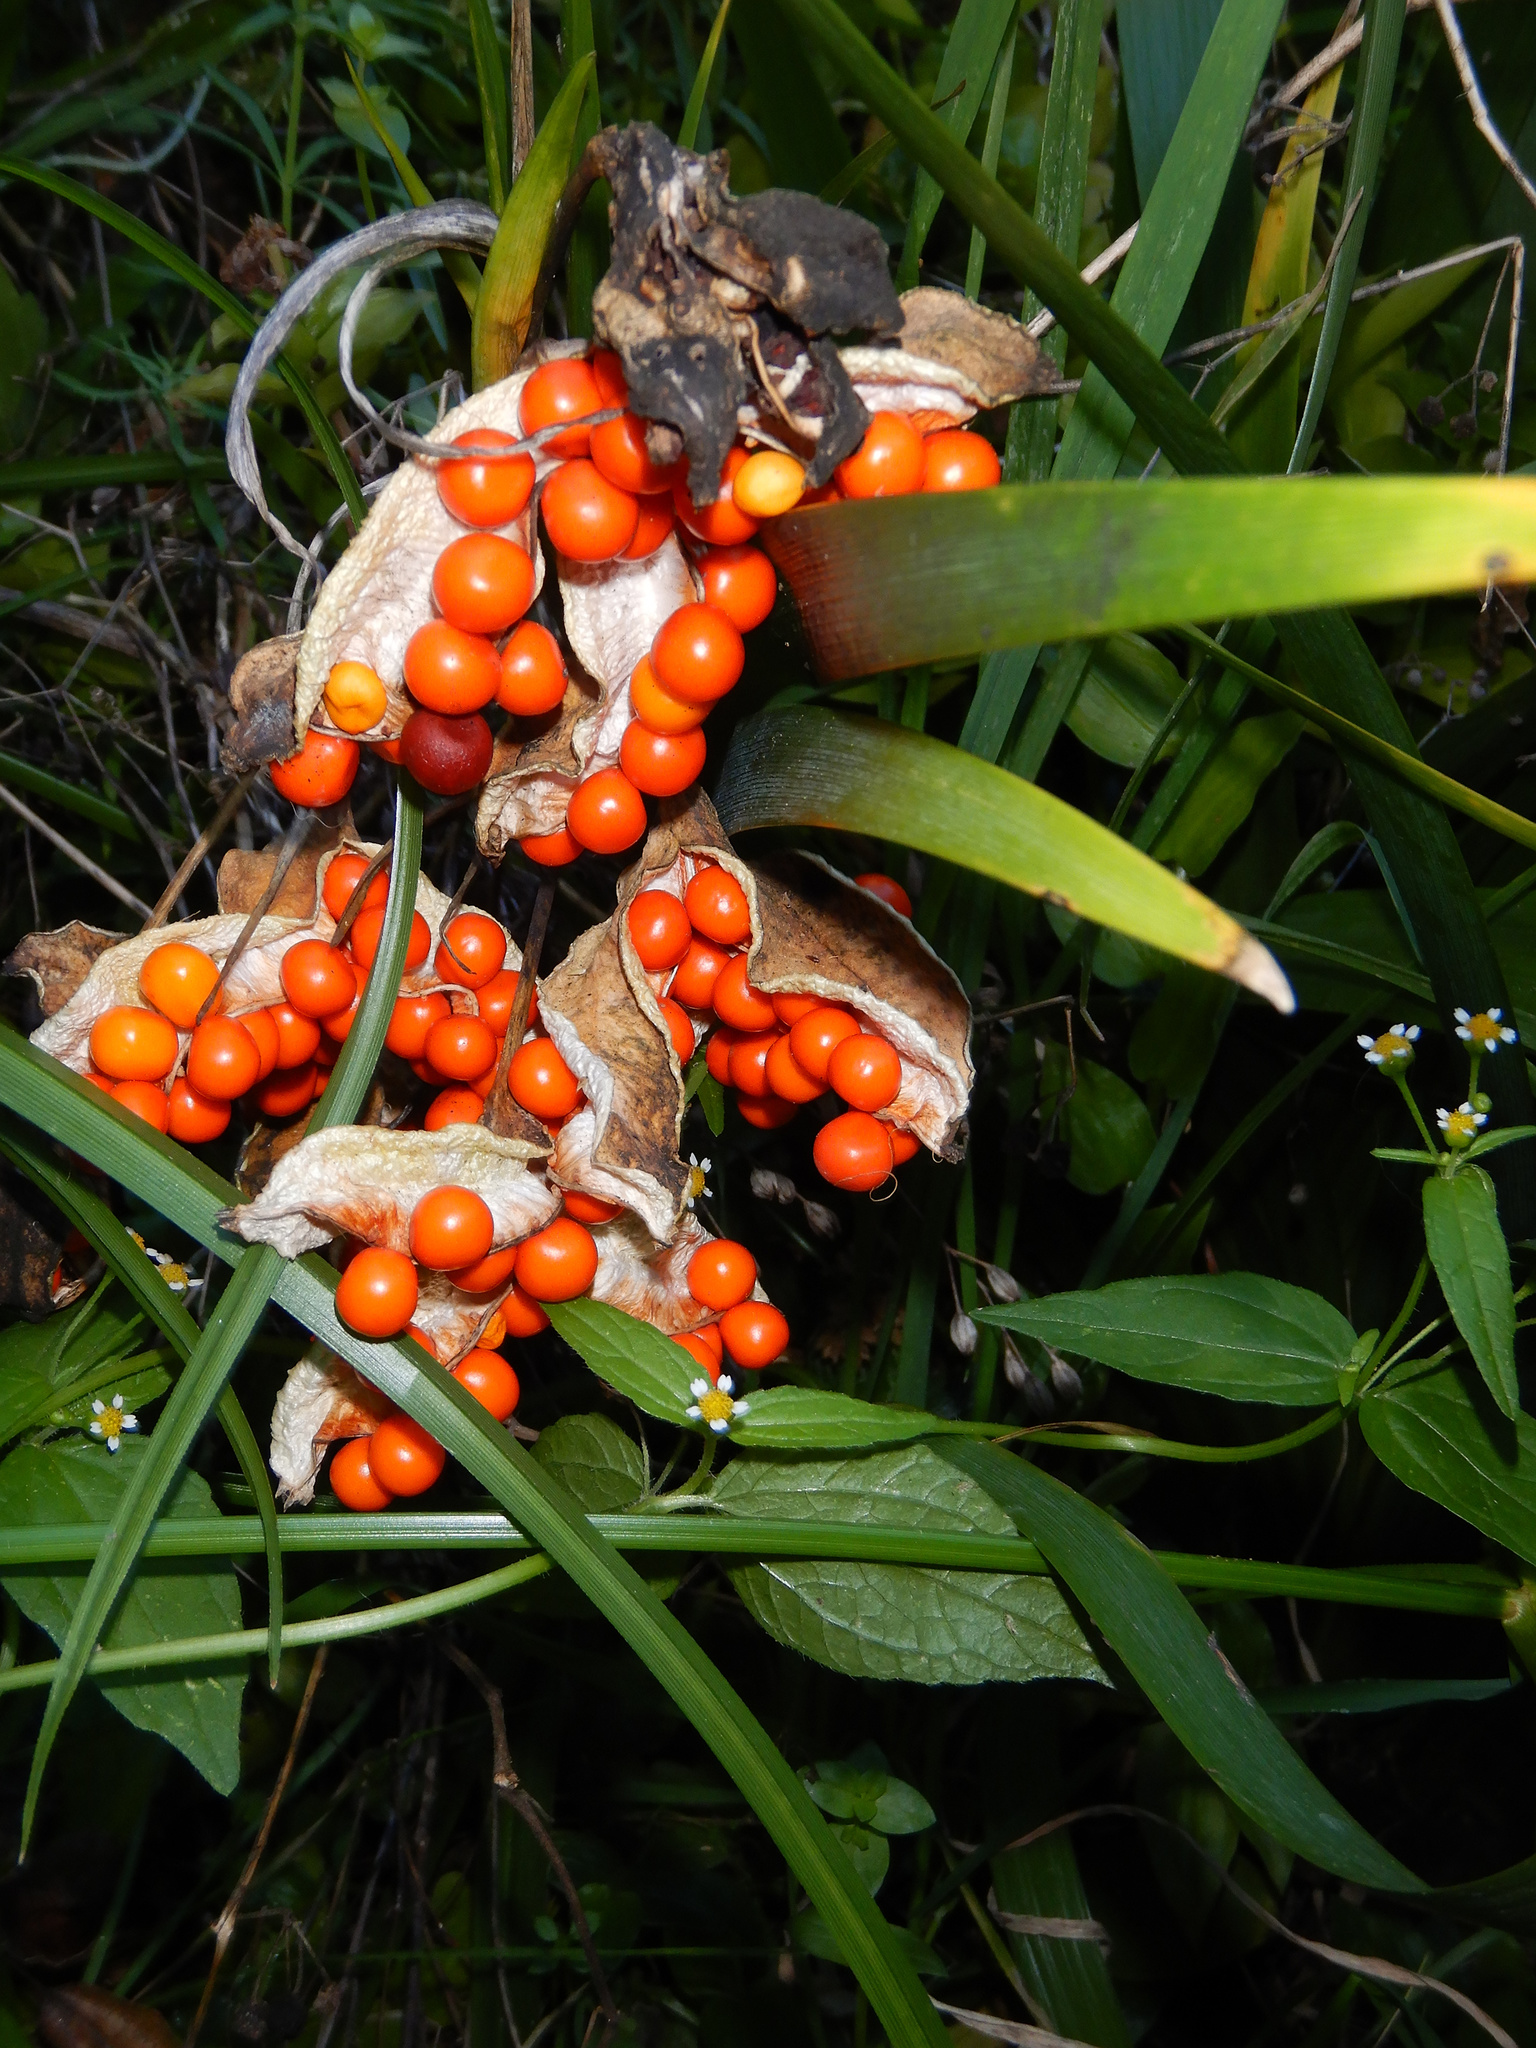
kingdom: Plantae
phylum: Tracheophyta
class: Liliopsida
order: Asparagales
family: Iridaceae
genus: Iris
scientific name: Iris foetidissima
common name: Stinking iris
